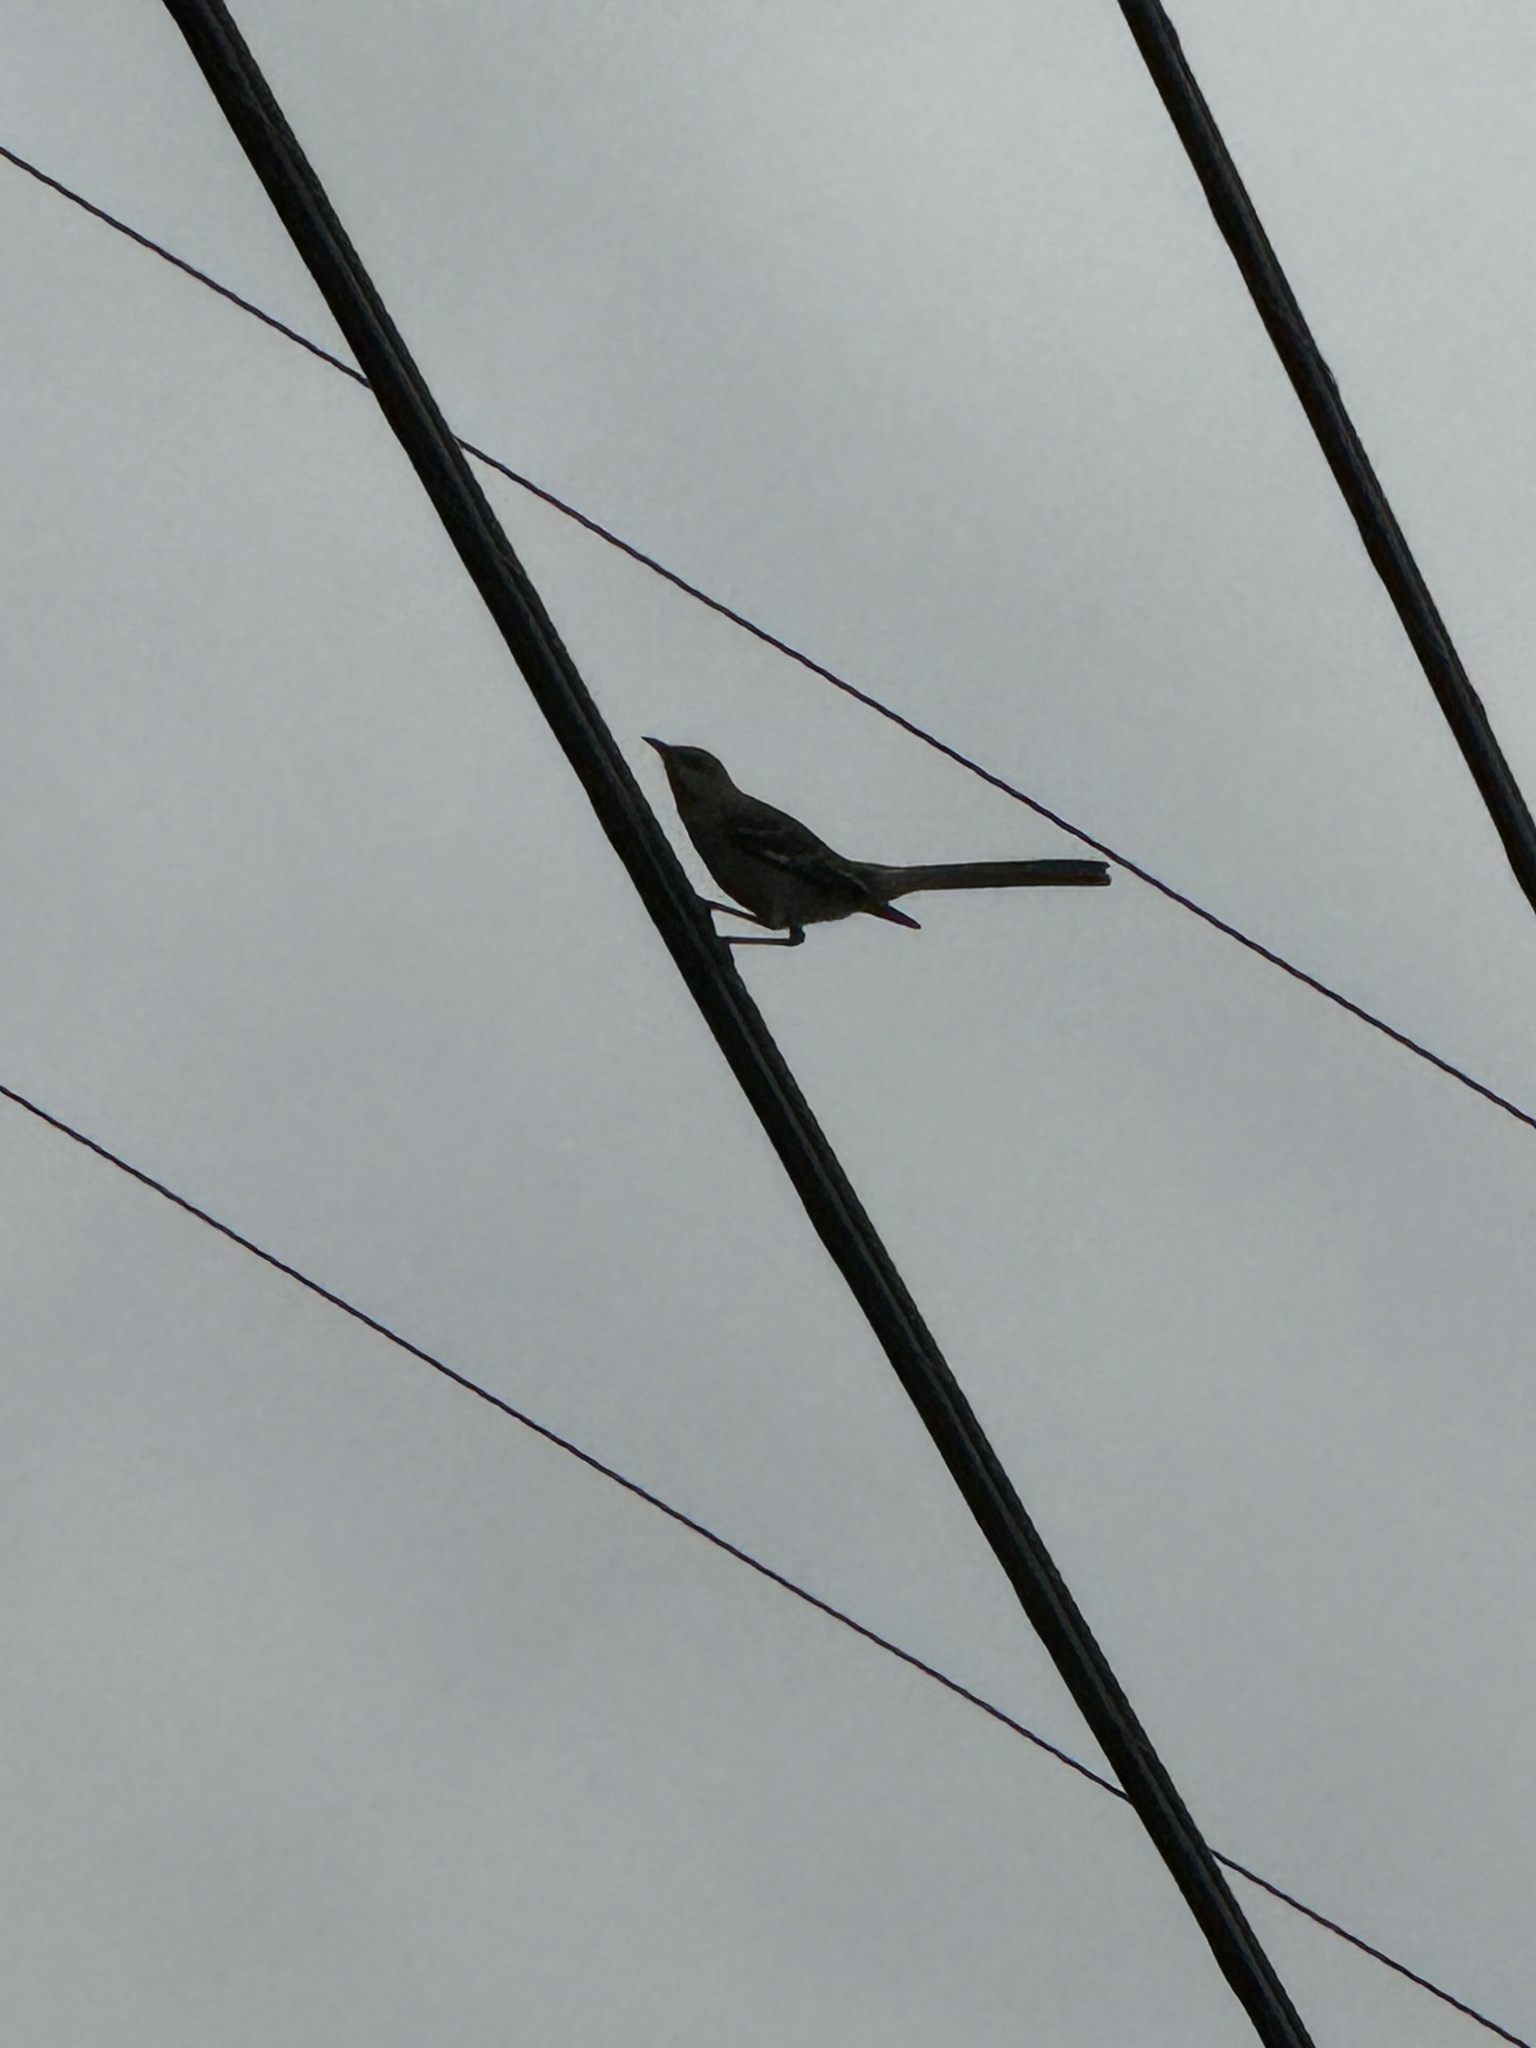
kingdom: Animalia
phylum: Chordata
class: Aves
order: Passeriformes
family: Mimidae
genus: Mimus
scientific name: Mimus polyglottos
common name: Northern mockingbird
